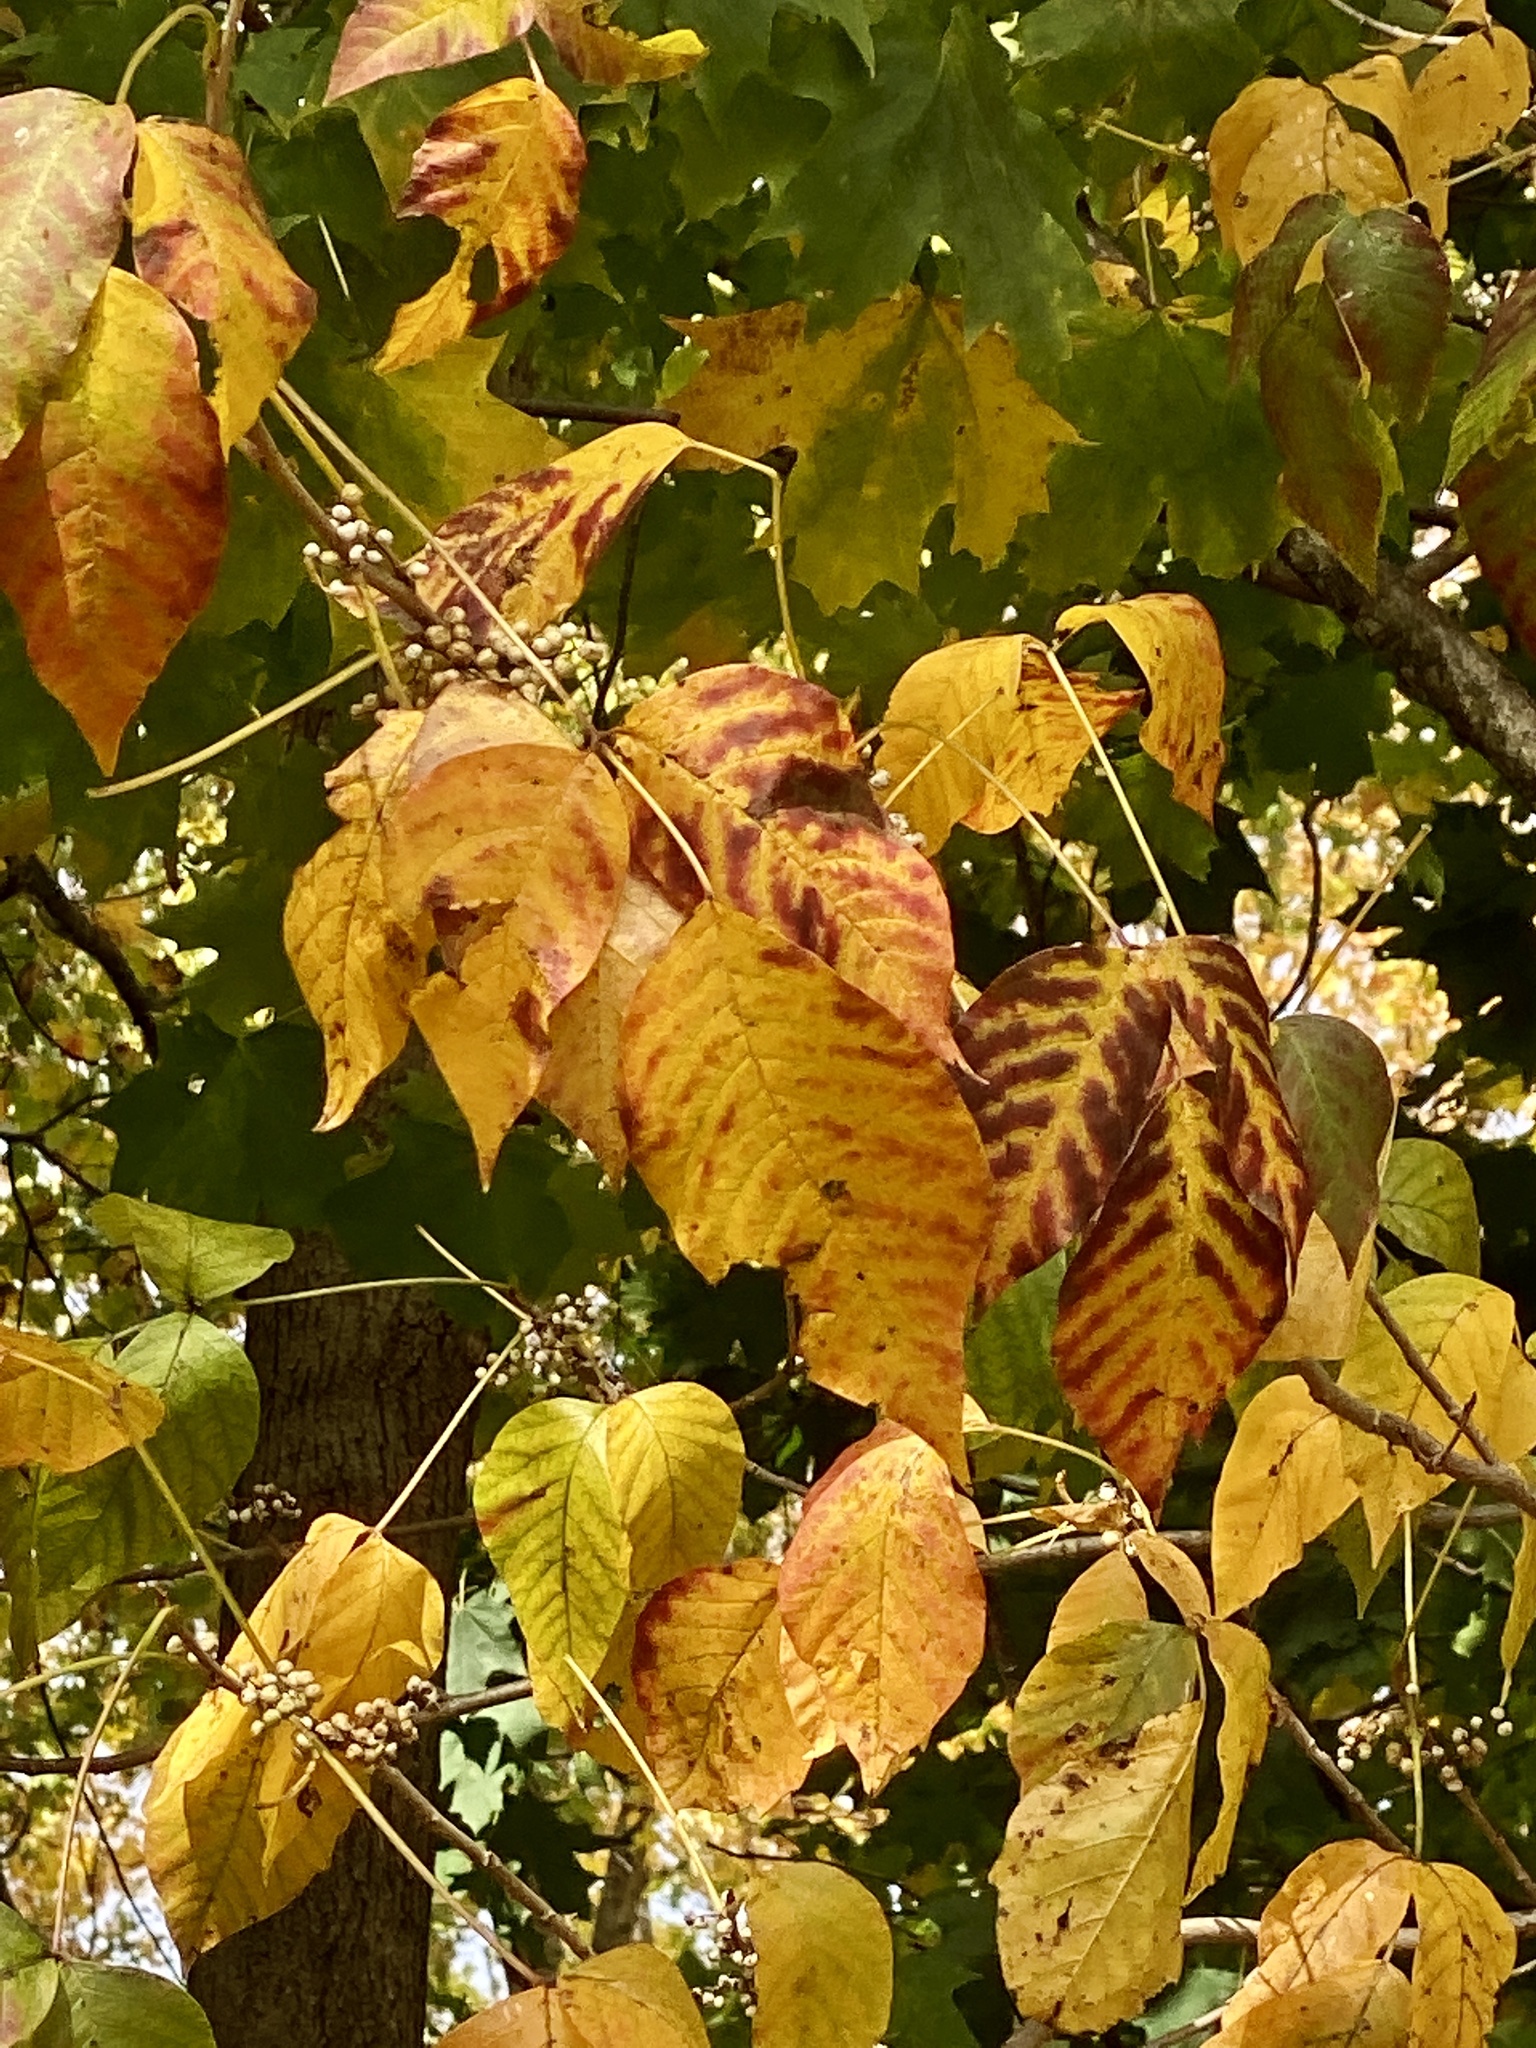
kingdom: Plantae
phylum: Tracheophyta
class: Magnoliopsida
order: Sapindales
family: Anacardiaceae
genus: Toxicodendron
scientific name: Toxicodendron radicans
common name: Poison ivy
